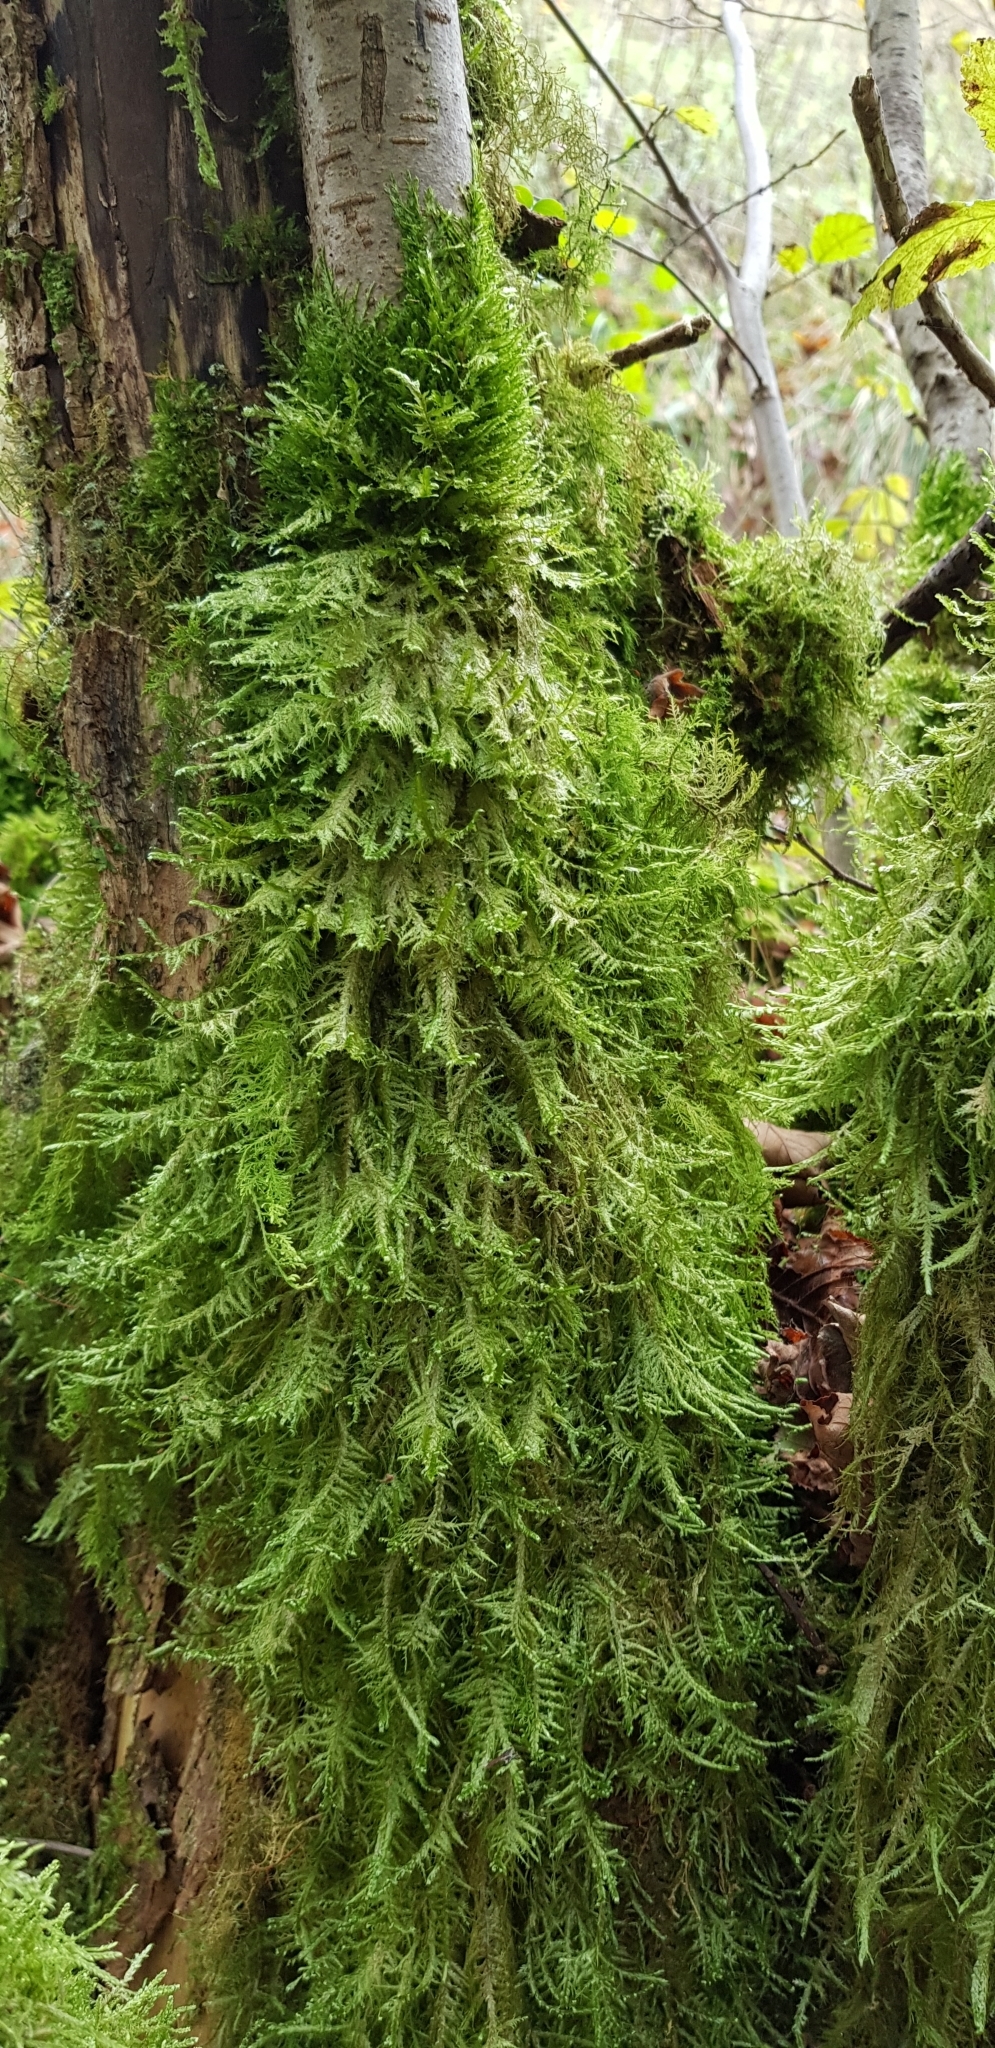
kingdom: Plantae
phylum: Bryophyta
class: Bryopsida
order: Hypnales
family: Neckeraceae
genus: Alleniella
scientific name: Alleniella complanata
